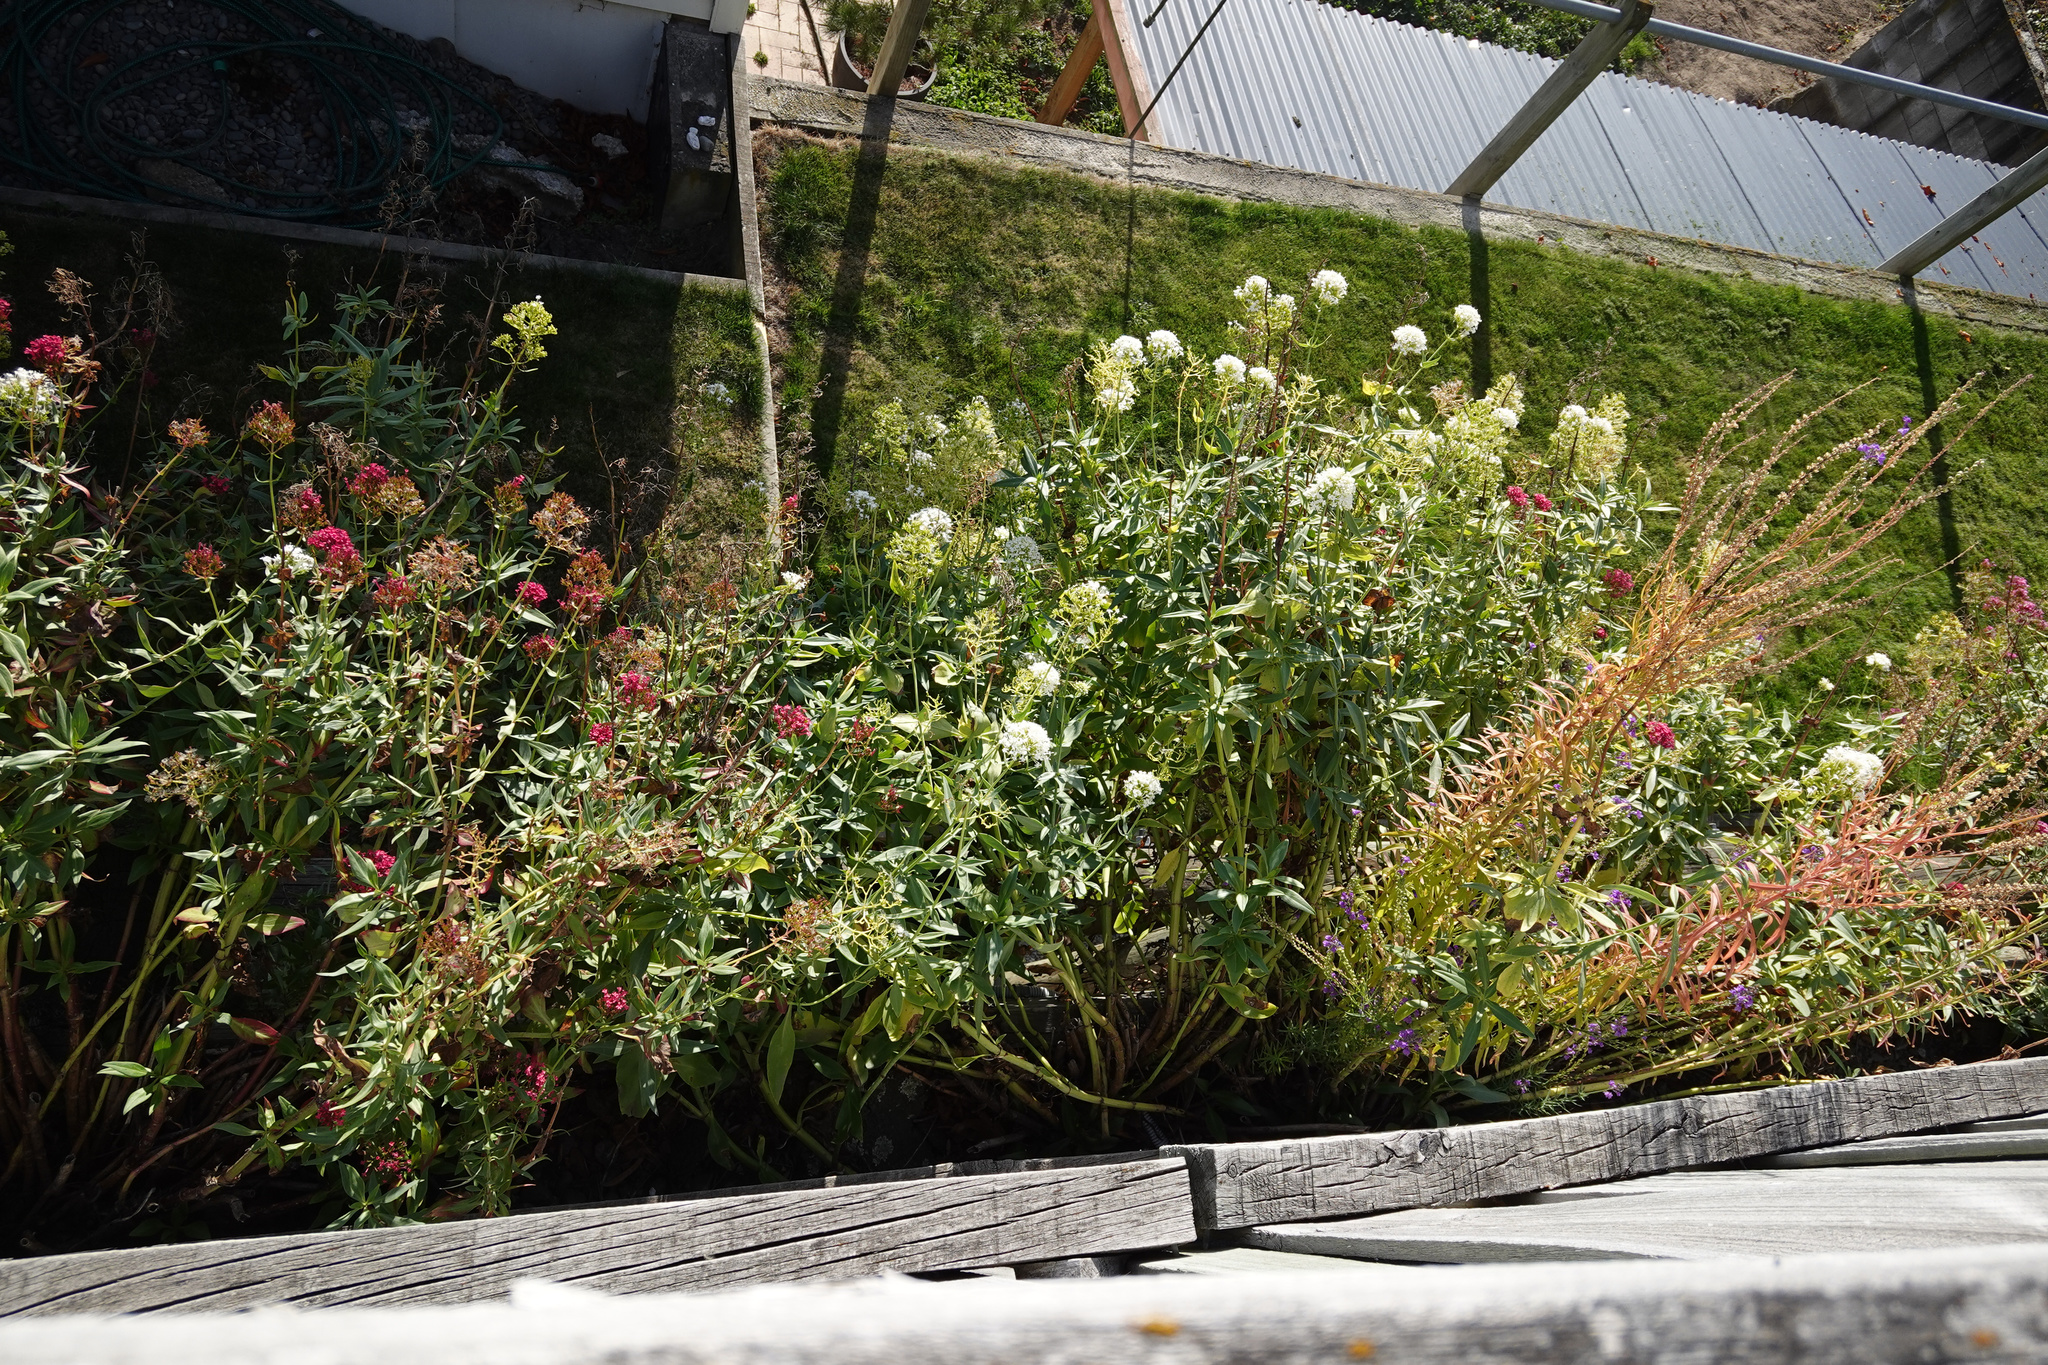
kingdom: Plantae
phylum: Tracheophyta
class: Magnoliopsida
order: Dipsacales
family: Caprifoliaceae
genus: Centranthus
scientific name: Centranthus ruber
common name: Red valerian
